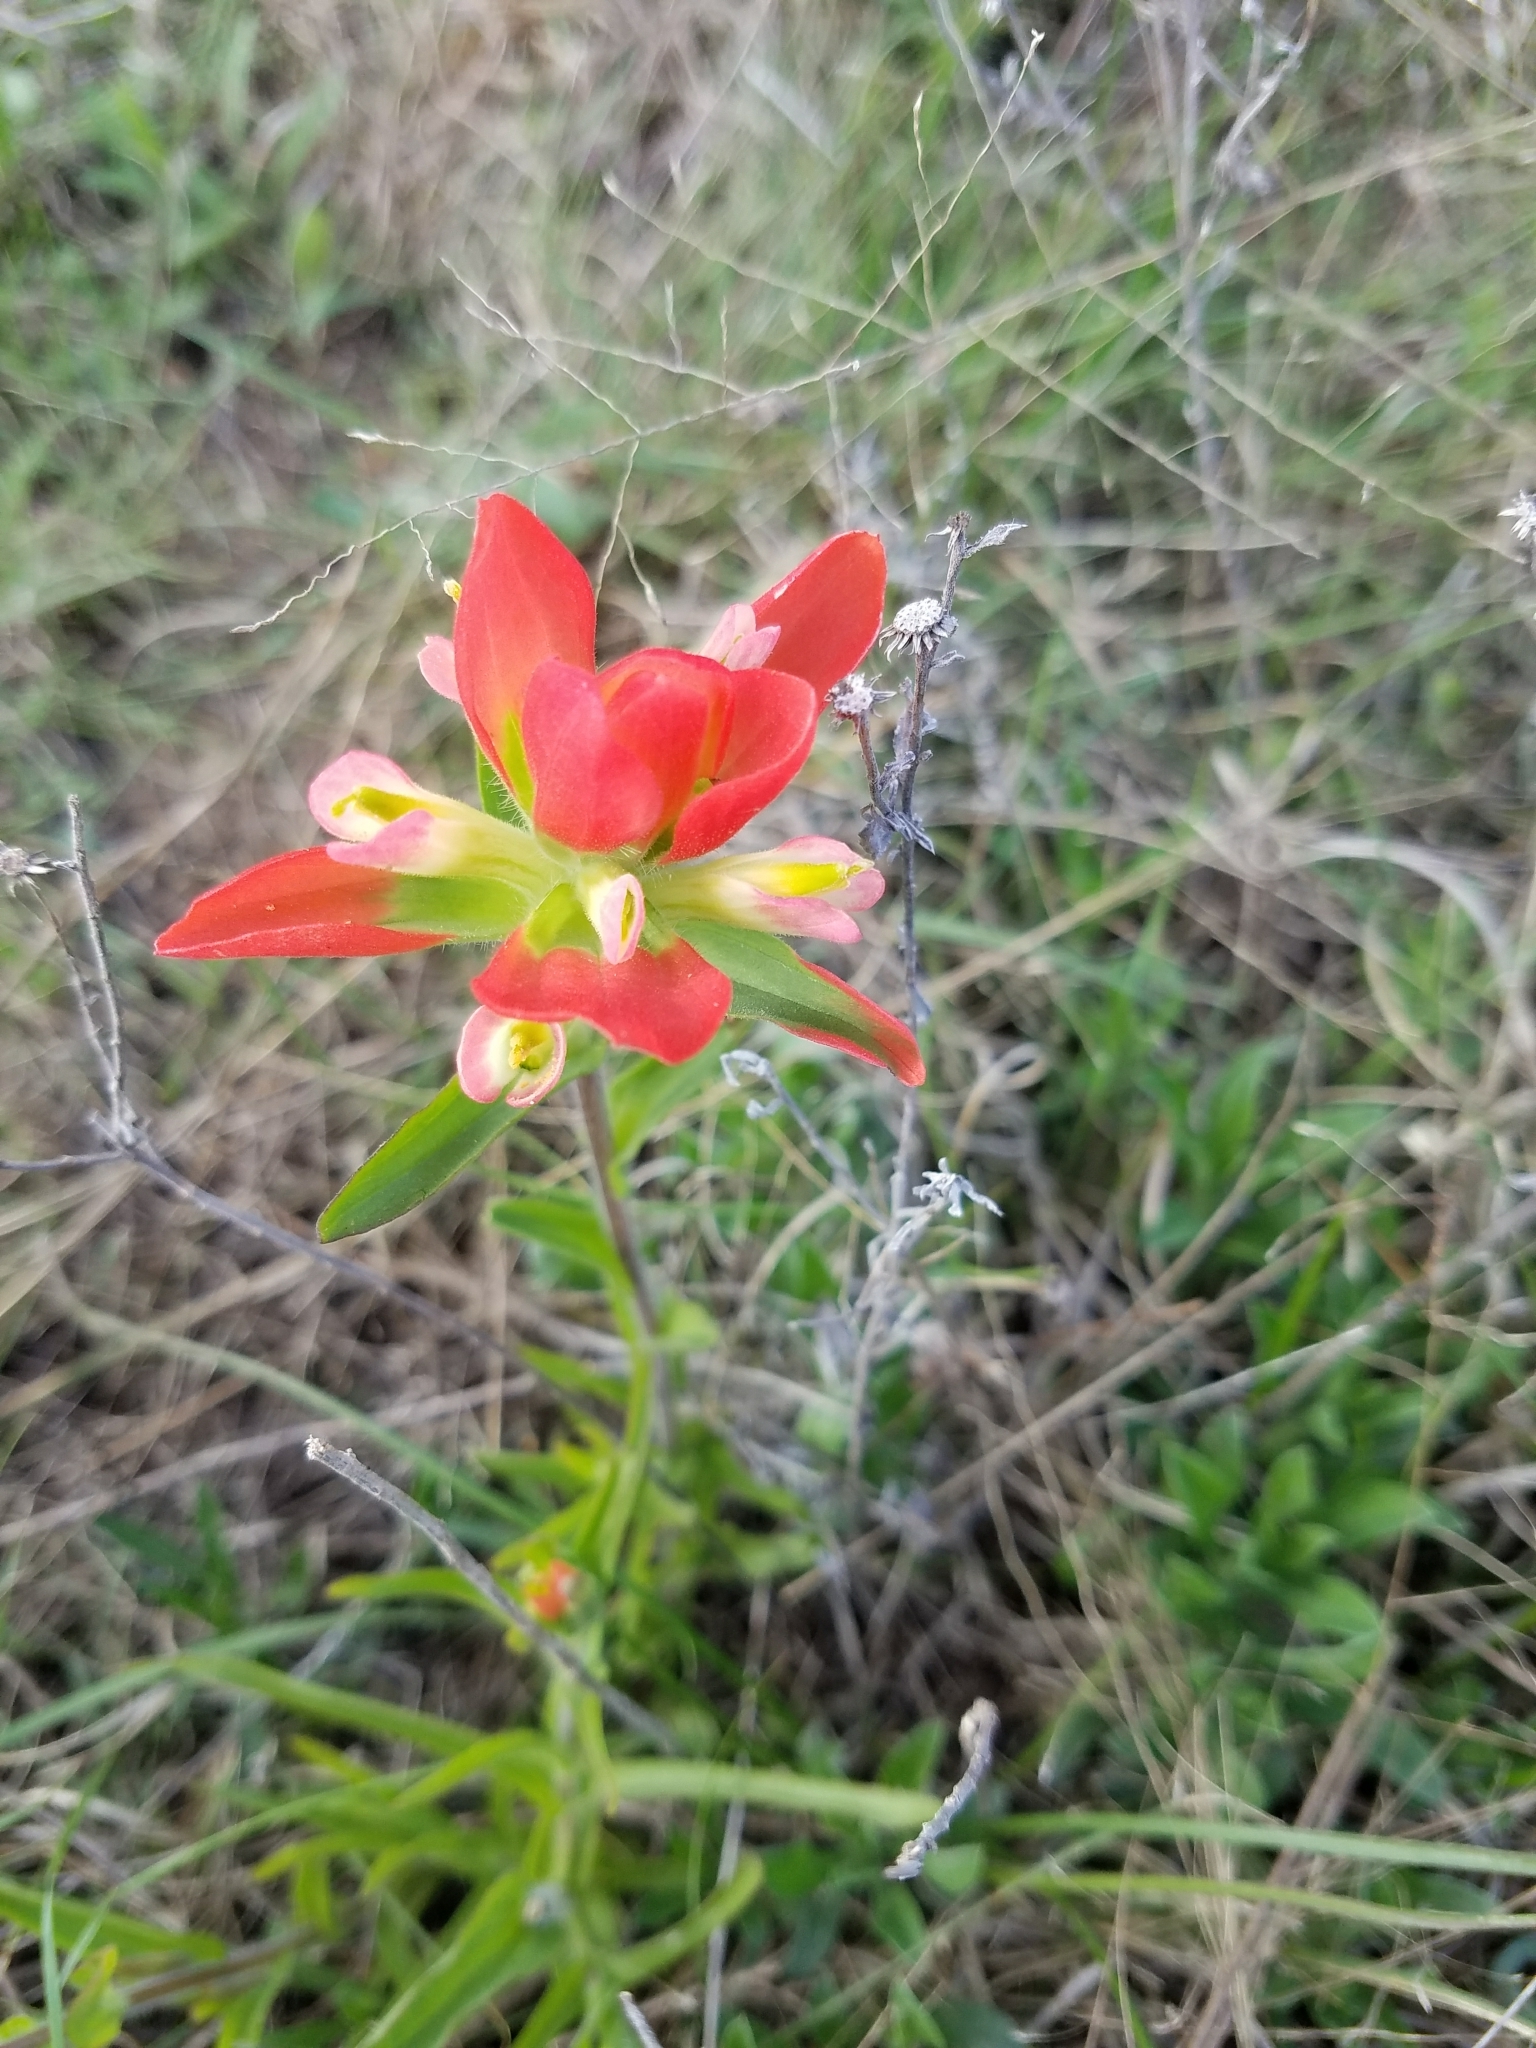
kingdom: Plantae
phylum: Tracheophyta
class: Magnoliopsida
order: Lamiales
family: Orobanchaceae
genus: Castilleja
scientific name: Castilleja indivisa
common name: Texas paintbrush
